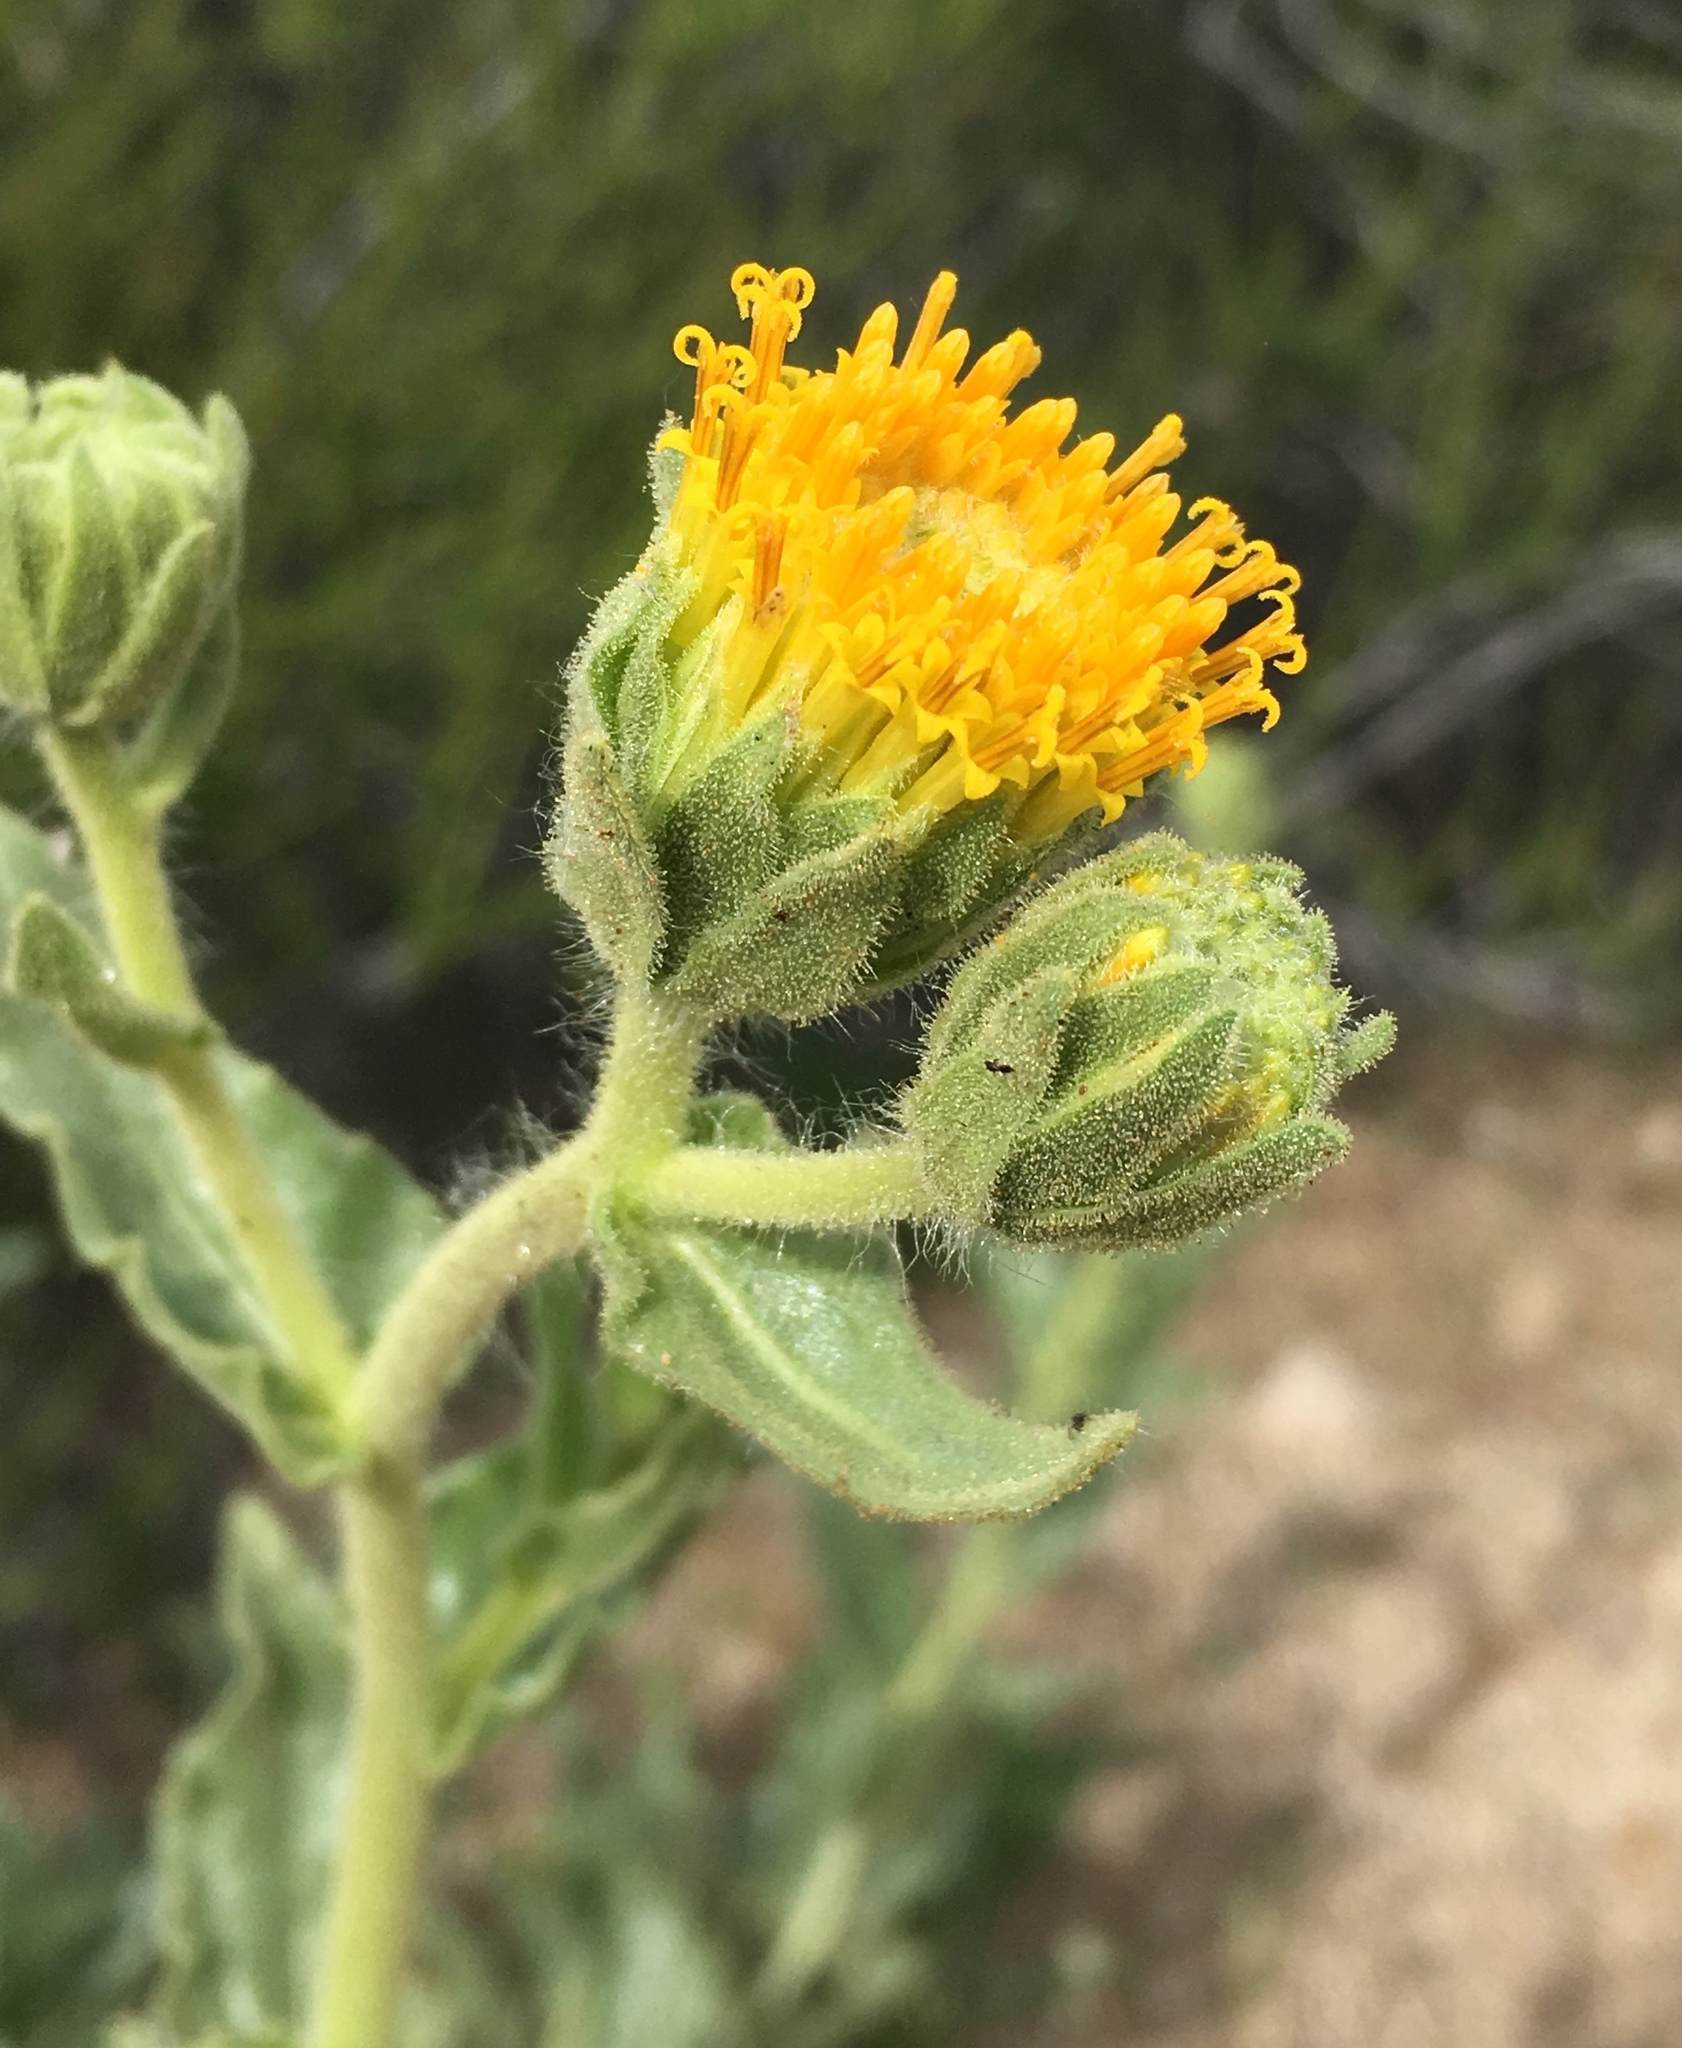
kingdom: Plantae
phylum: Tracheophyta
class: Magnoliopsida
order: Asterales
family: Asteraceae
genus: Geraea
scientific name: Geraea viscida
